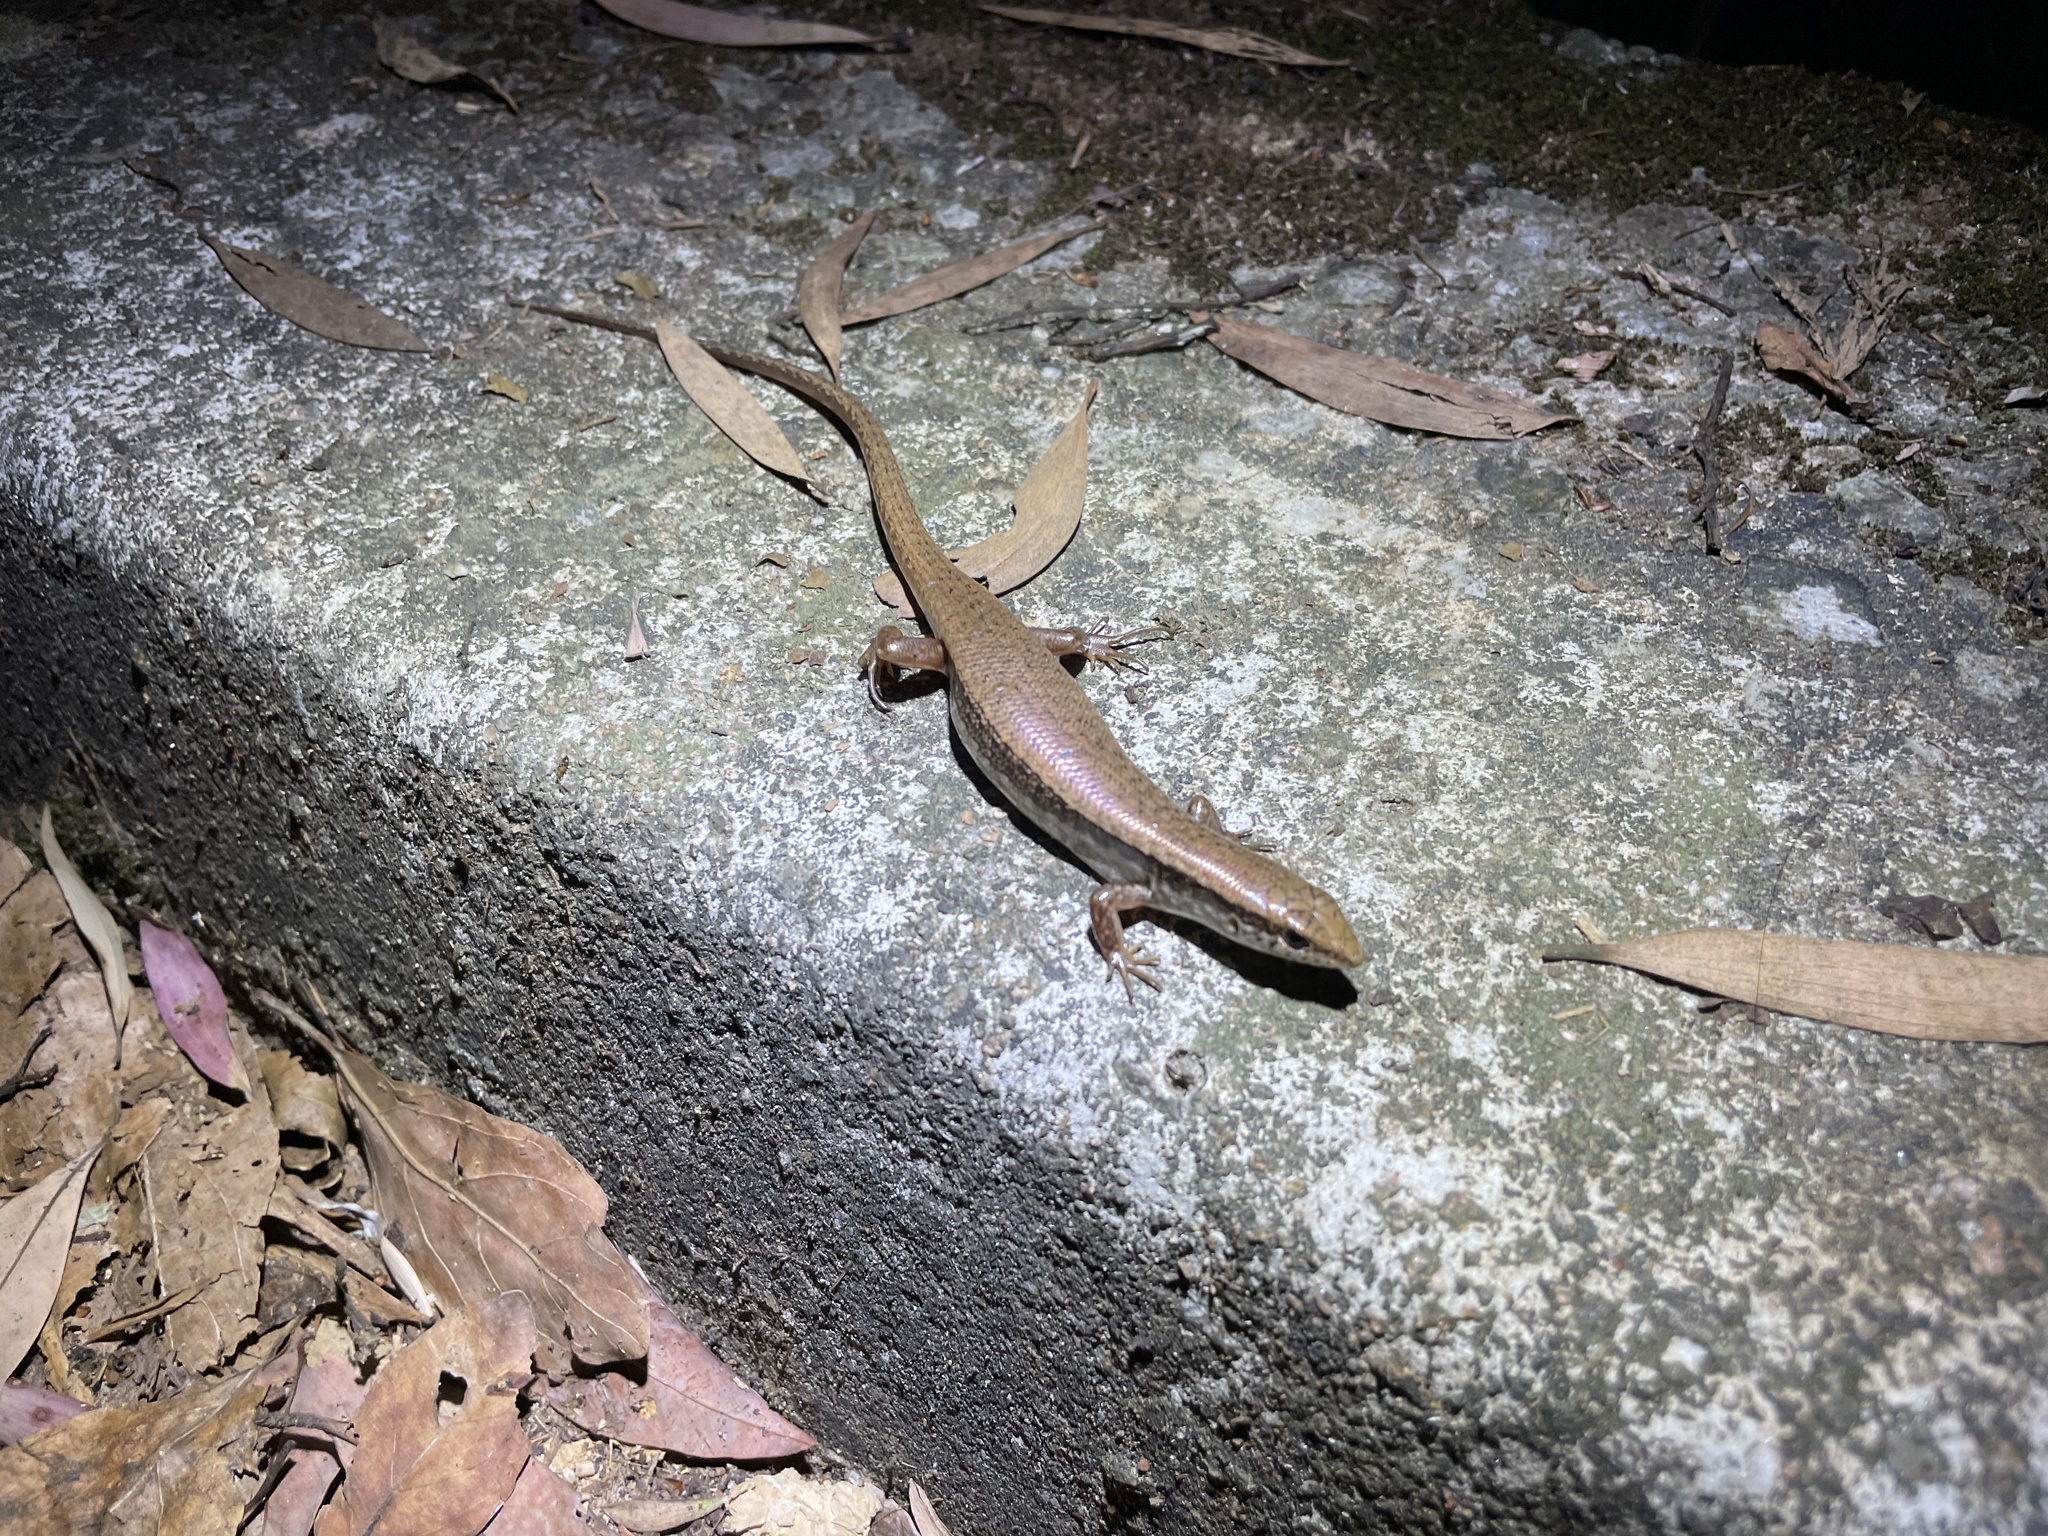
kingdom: Animalia
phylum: Chordata
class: Squamata
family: Scincidae
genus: Sphenomorphus
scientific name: Sphenomorphus indicus
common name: Himalayan forest skink
